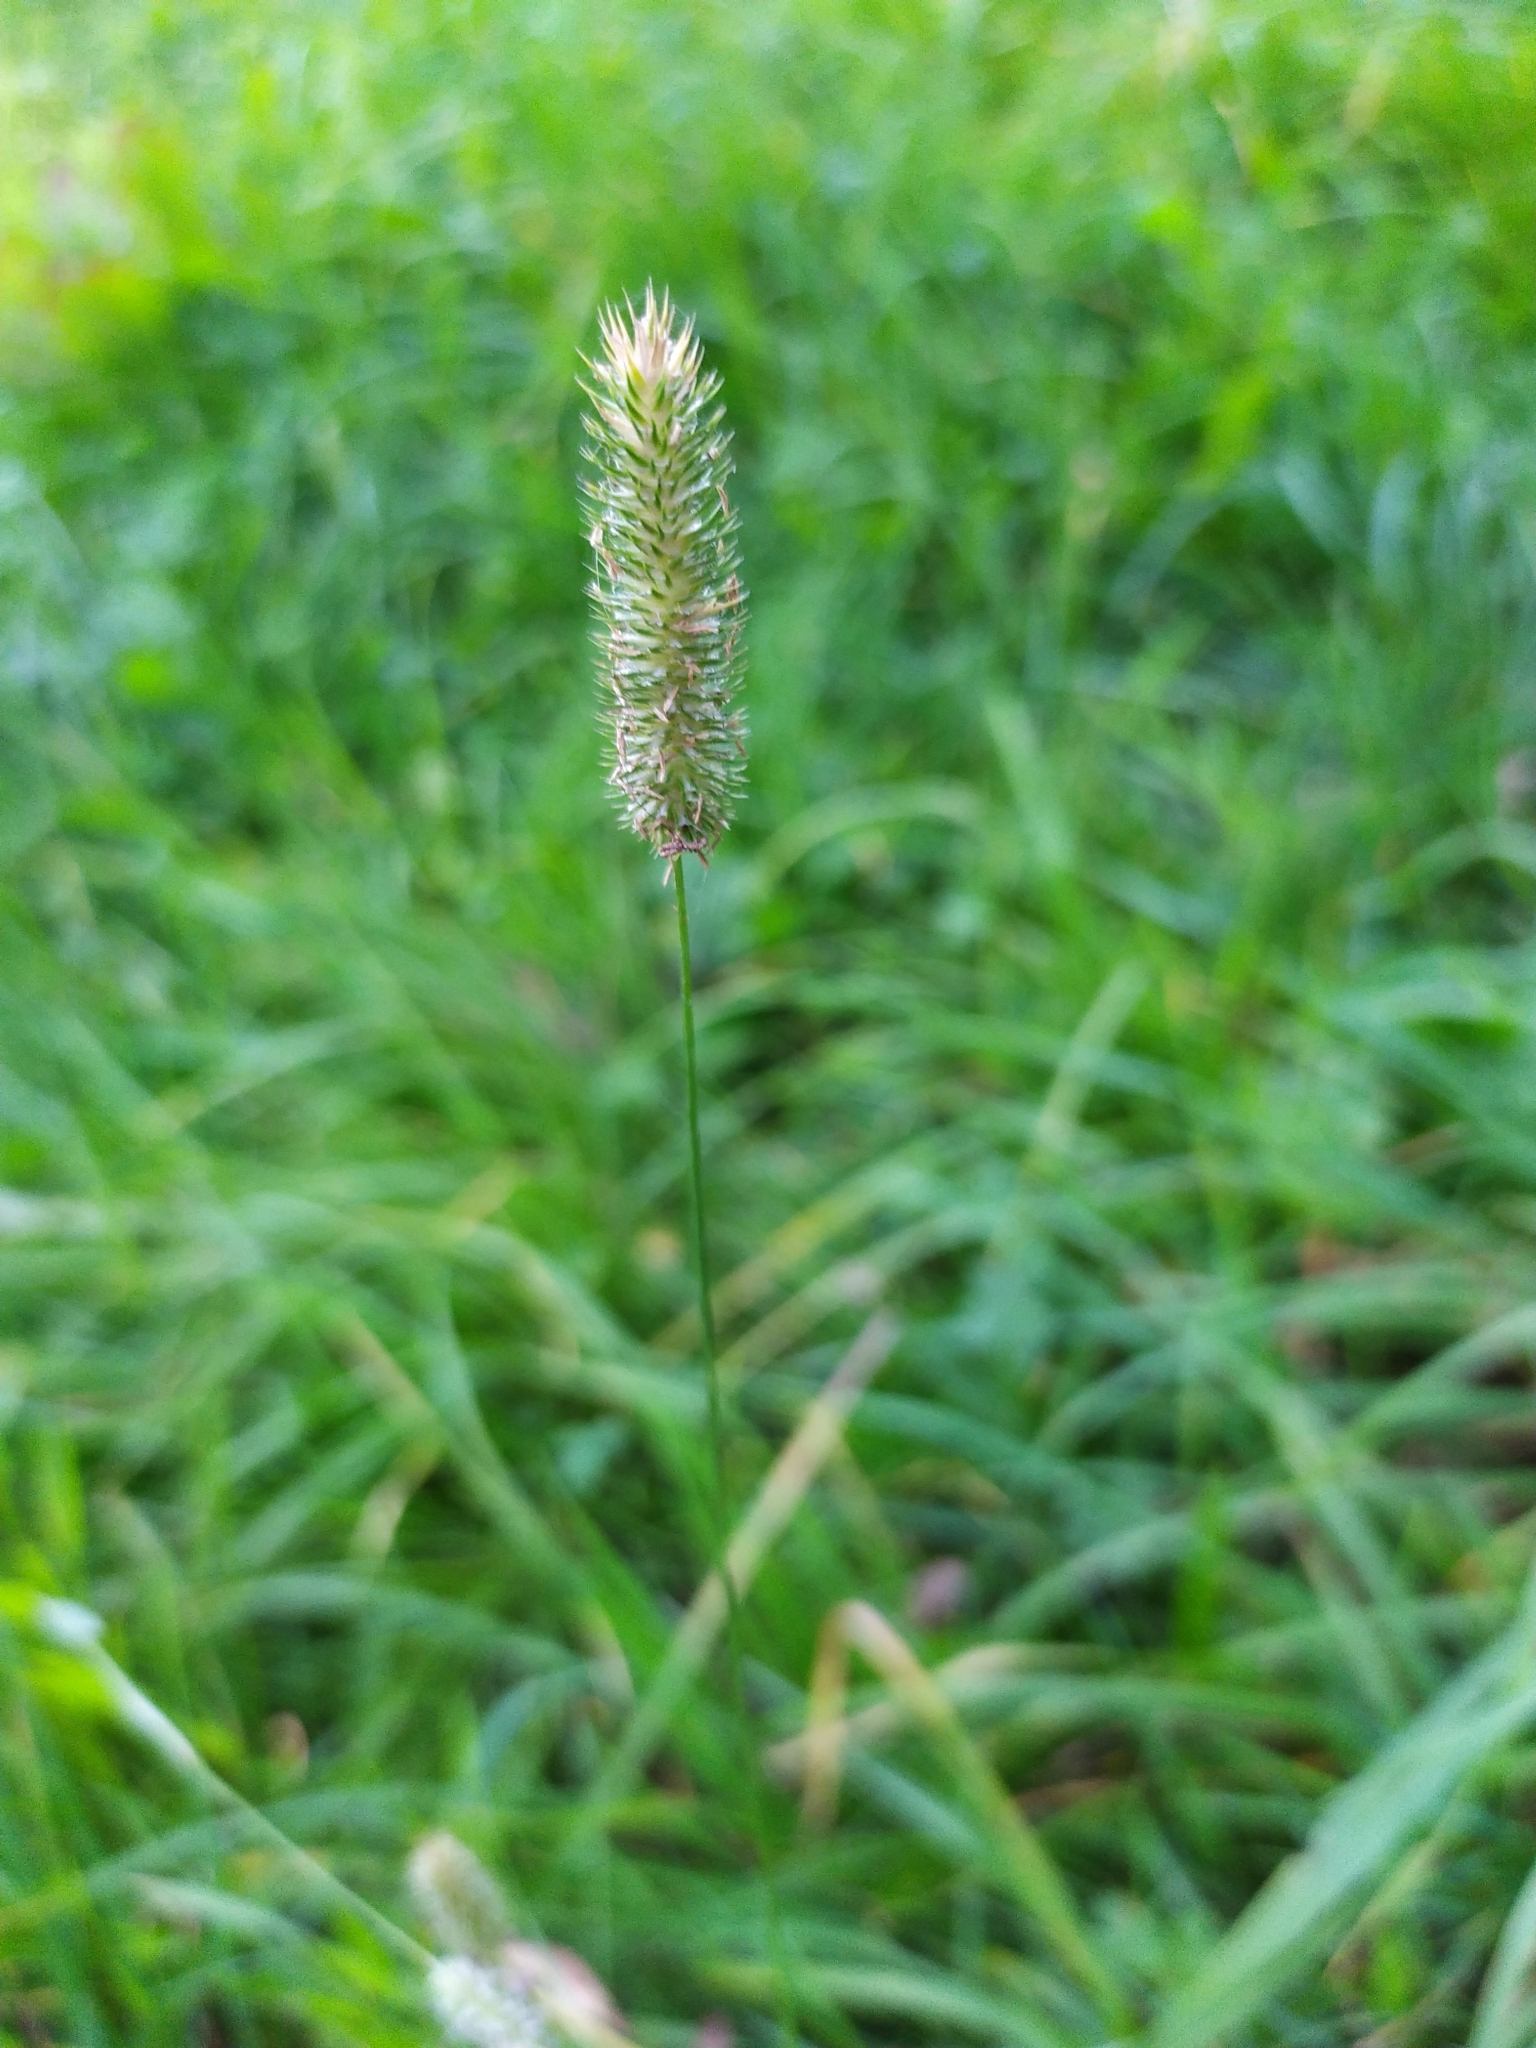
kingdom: Plantae
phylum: Tracheophyta
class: Liliopsida
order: Poales
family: Poaceae
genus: Phleum
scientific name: Phleum pratense
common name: Timothy grass
